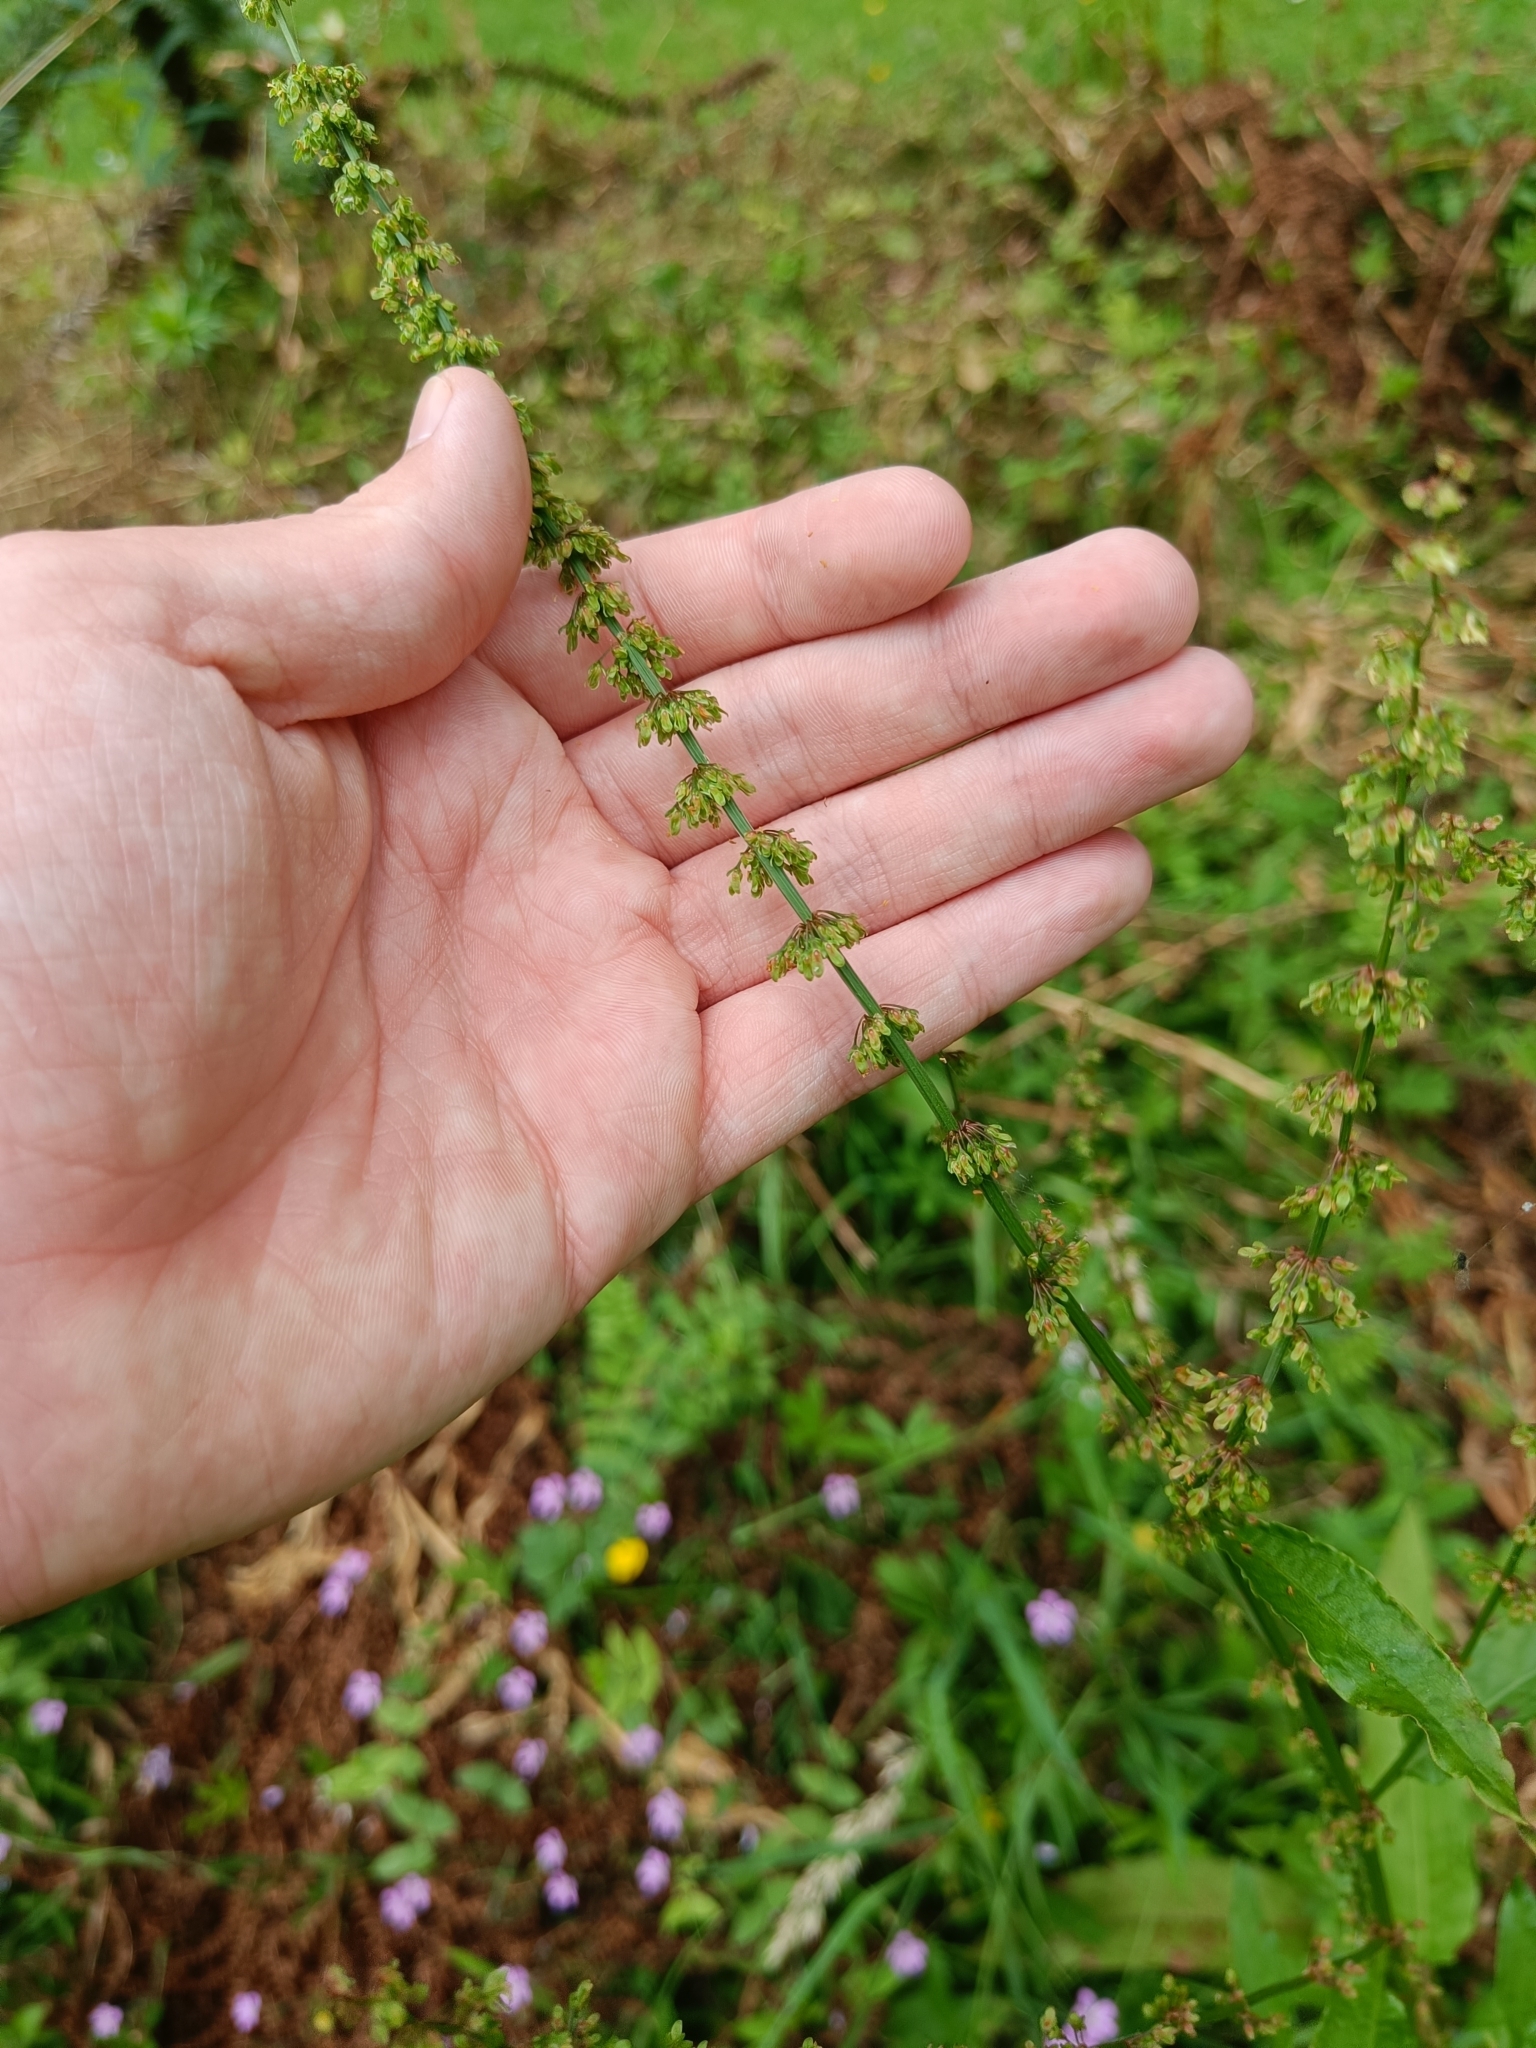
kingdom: Plantae
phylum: Tracheophyta
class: Magnoliopsida
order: Caryophyllales
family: Polygonaceae
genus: Rumex
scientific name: Rumex crispus
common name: Curled dock
